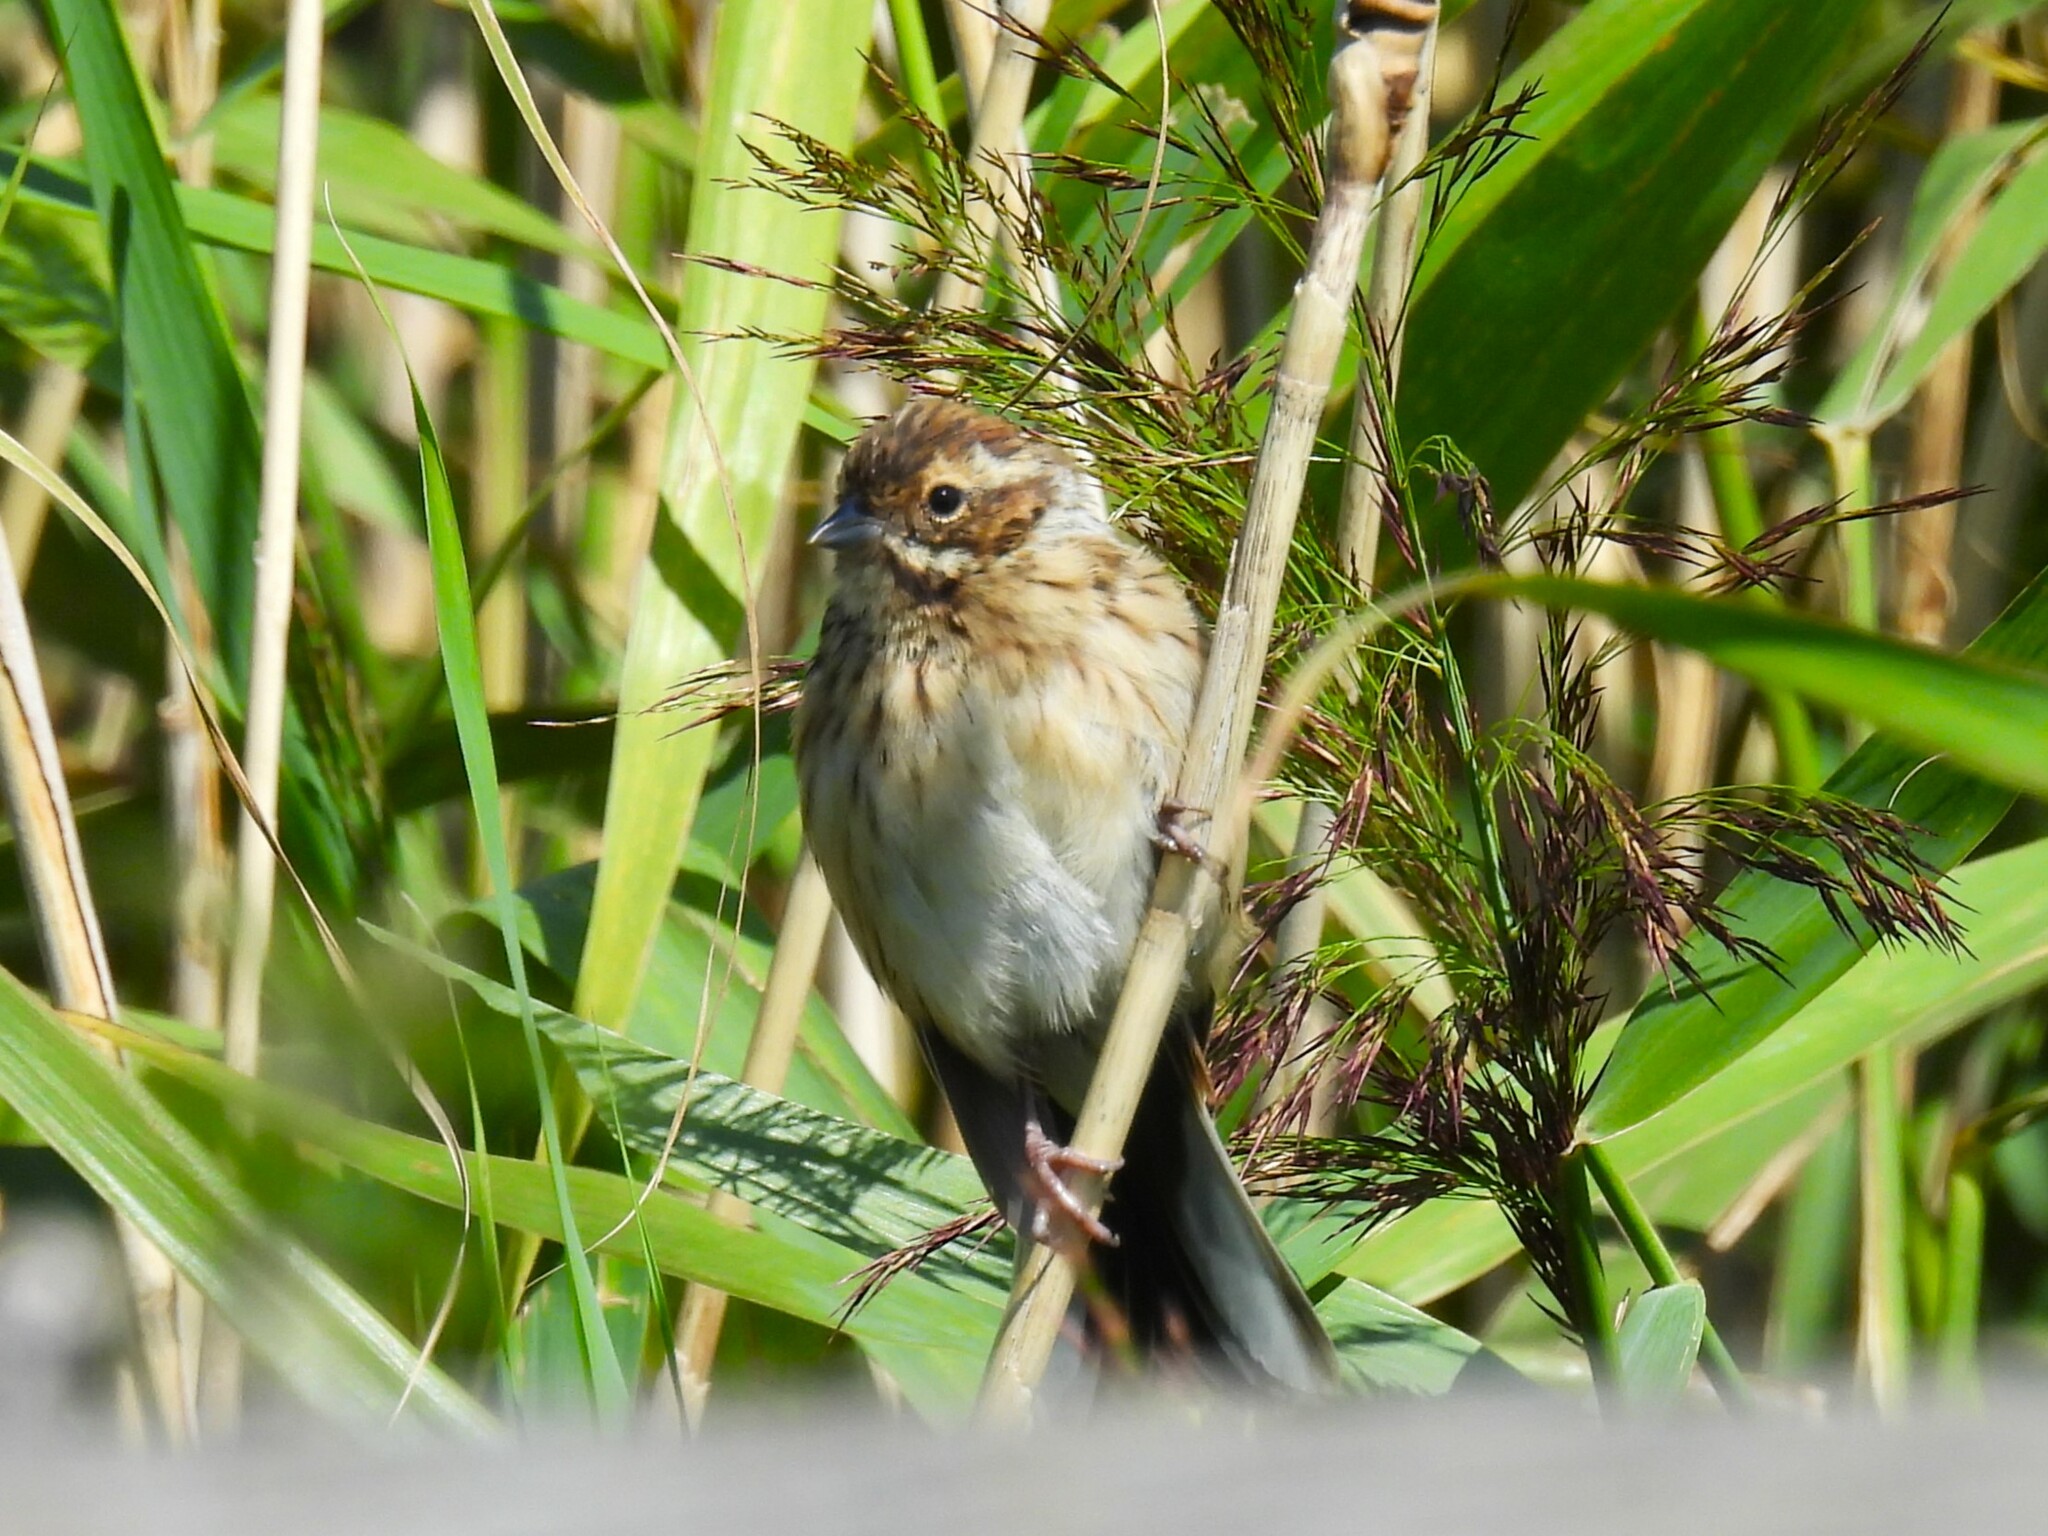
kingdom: Animalia
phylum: Chordata
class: Aves
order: Passeriformes
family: Emberizidae
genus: Emberiza
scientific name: Emberiza schoeniclus
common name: Reed bunting
